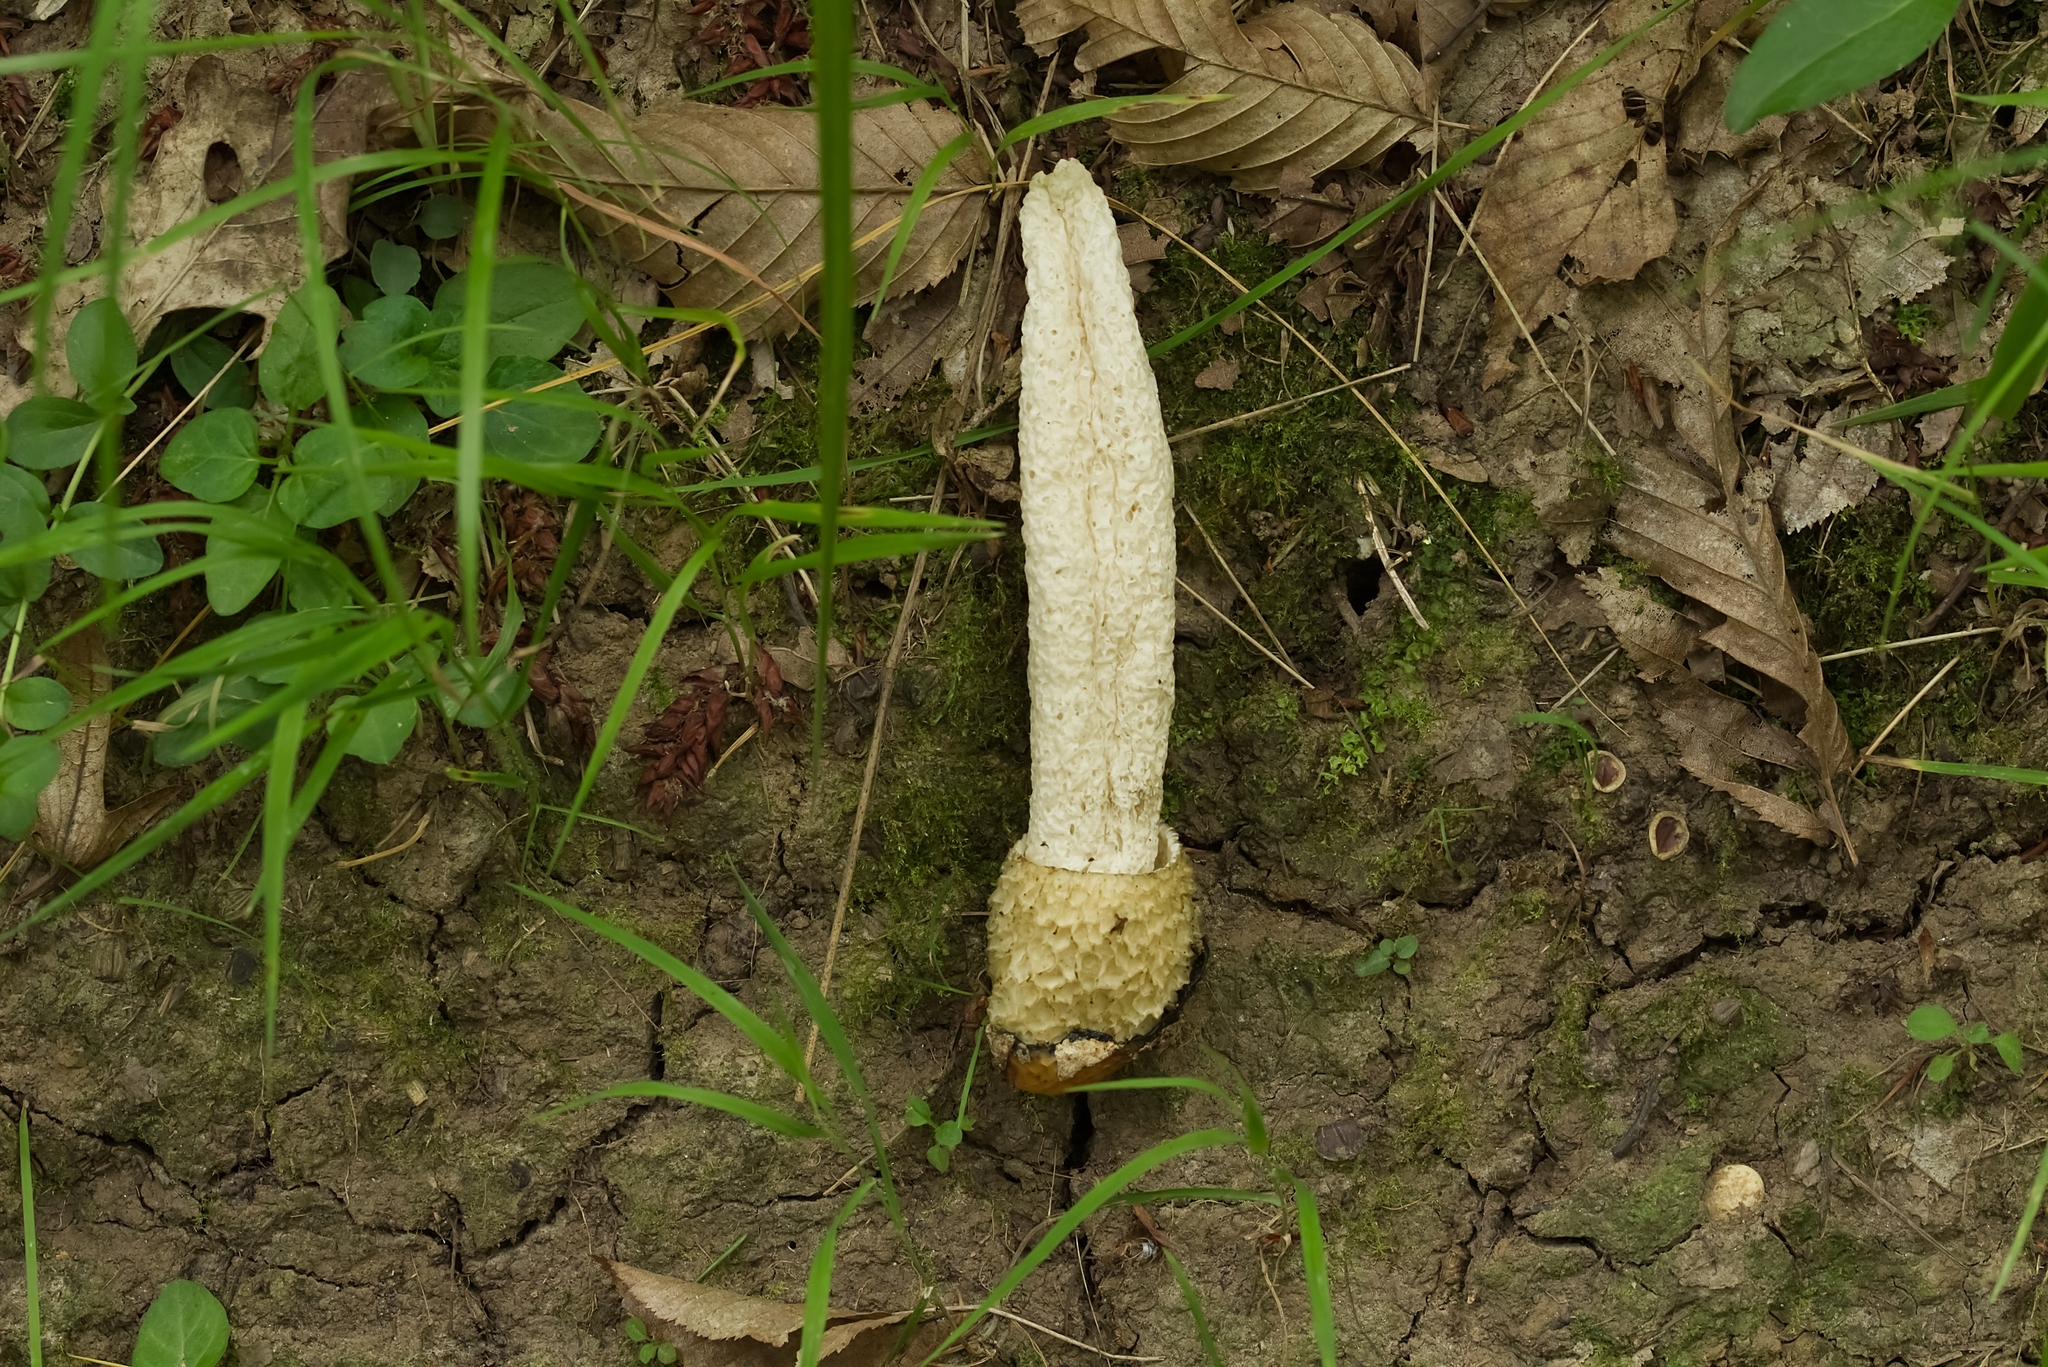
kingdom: Fungi
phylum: Basidiomycota
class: Agaricomycetes
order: Phallales
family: Phallaceae
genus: Phallus
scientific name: Phallus impudicus
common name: Common stinkhorn
